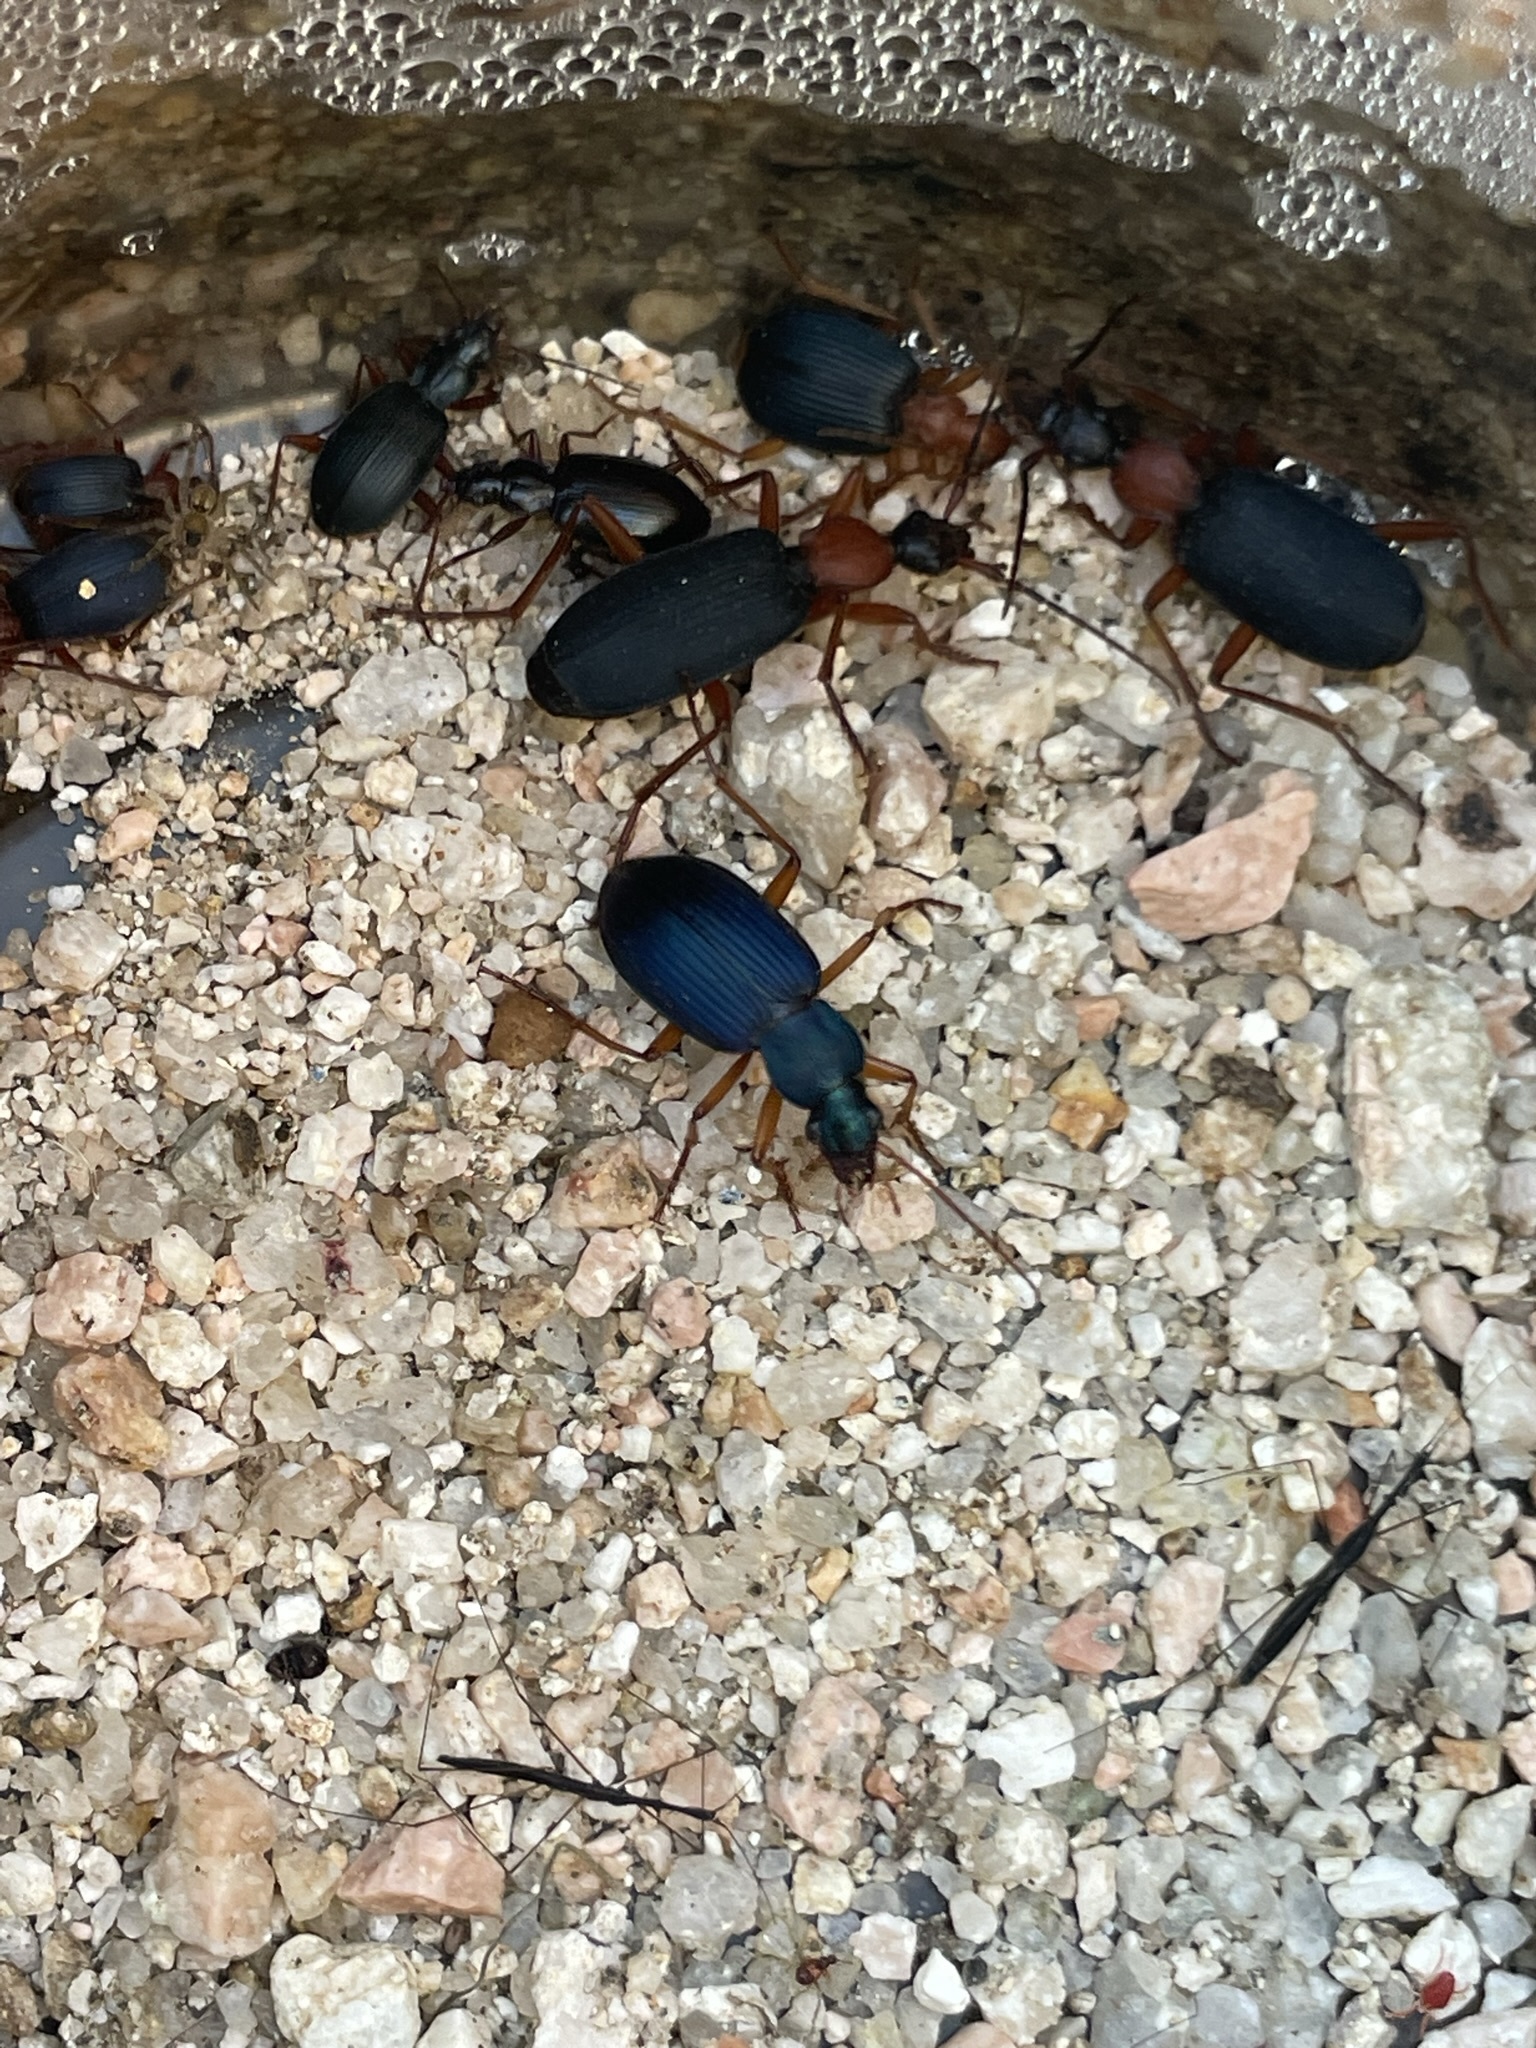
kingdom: Animalia
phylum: Arthropoda
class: Insecta
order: Coleoptera
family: Carabidae
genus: Chlaenius
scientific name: Chlaenius cumatilis
